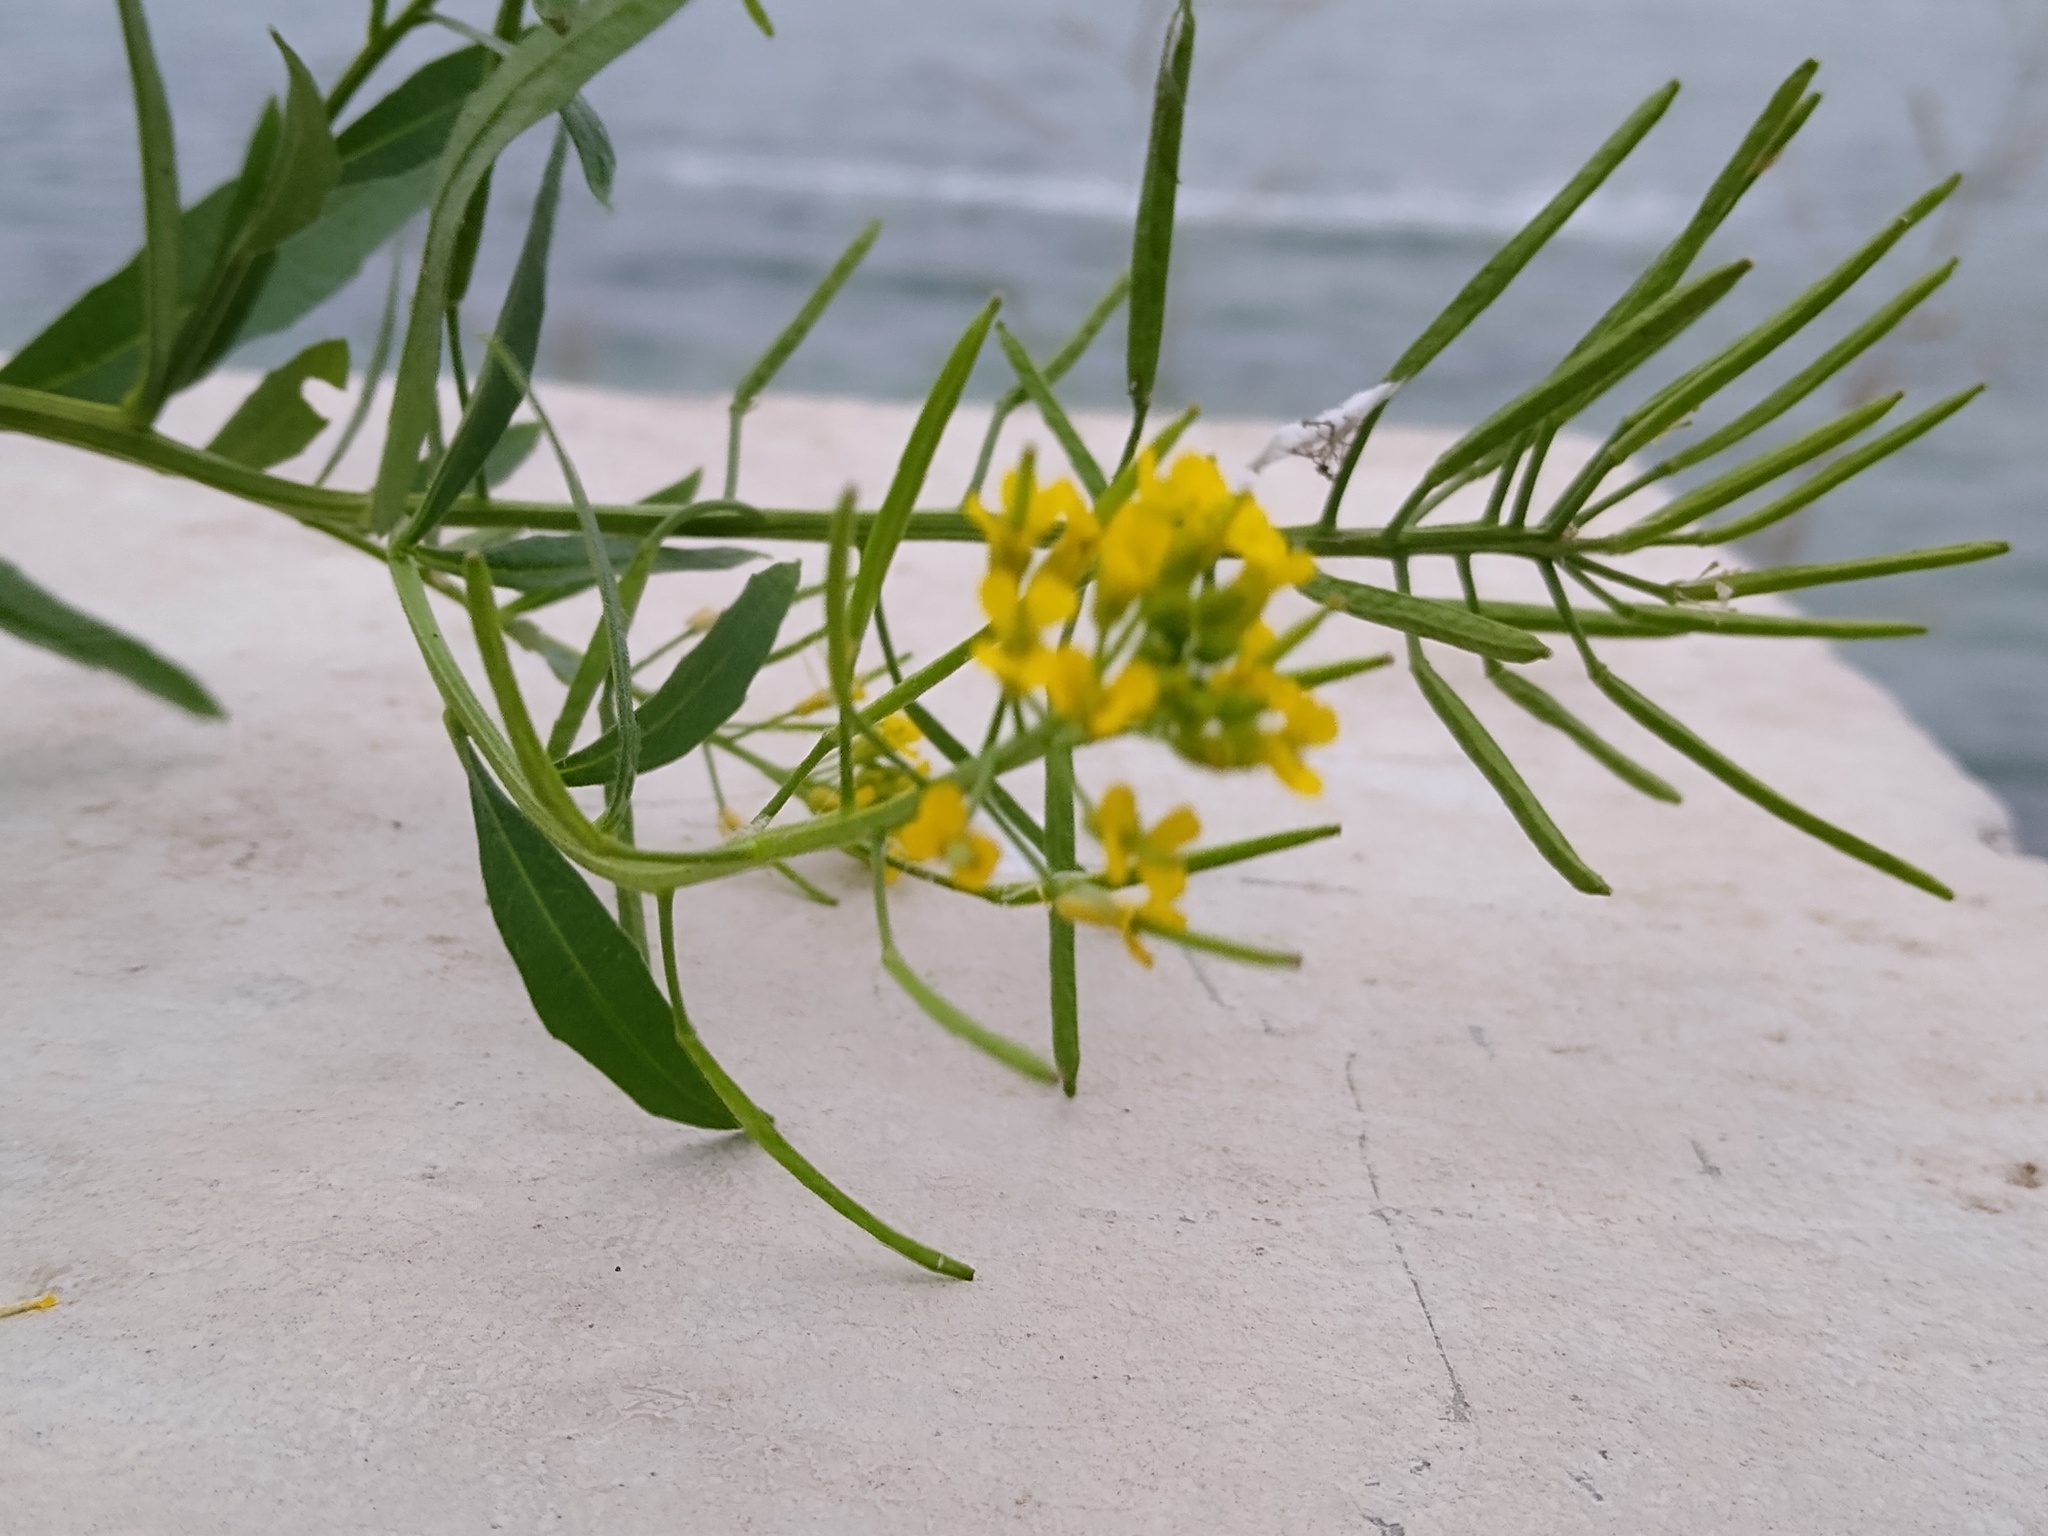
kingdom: Plantae
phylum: Tracheophyta
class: Magnoliopsida
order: Brassicales
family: Brassicaceae
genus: Sisymbrium
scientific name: Sisymbrium irio
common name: London rocket
